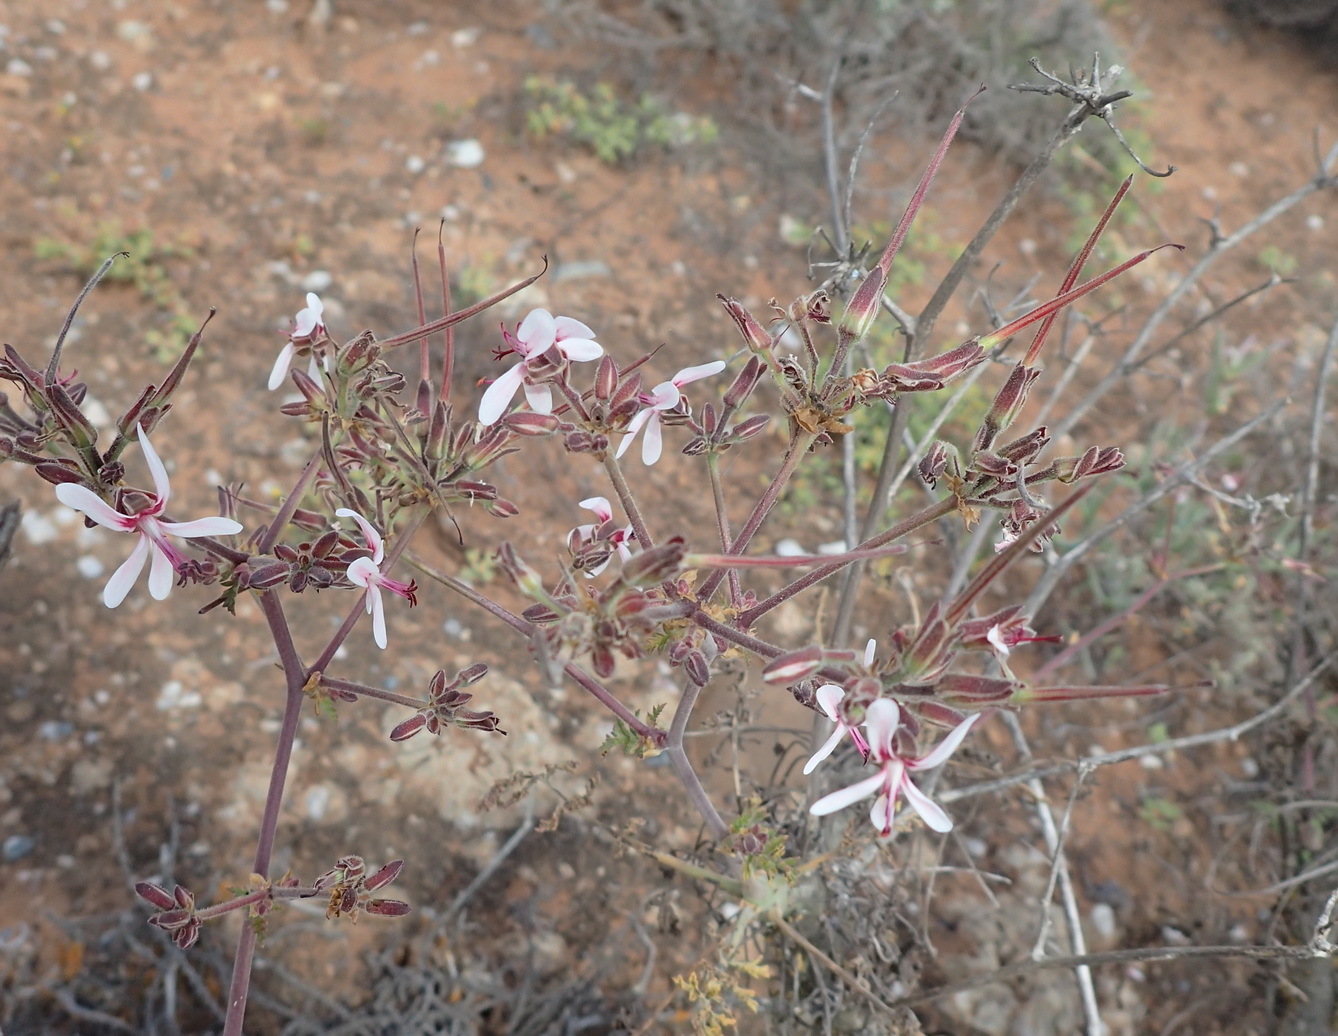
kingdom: Plantae
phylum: Tracheophyta
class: Magnoliopsida
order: Geraniales
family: Geraniaceae
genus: Pelargonium
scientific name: Pelargonium carnosum
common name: Fleshy-stalk pelargonium
